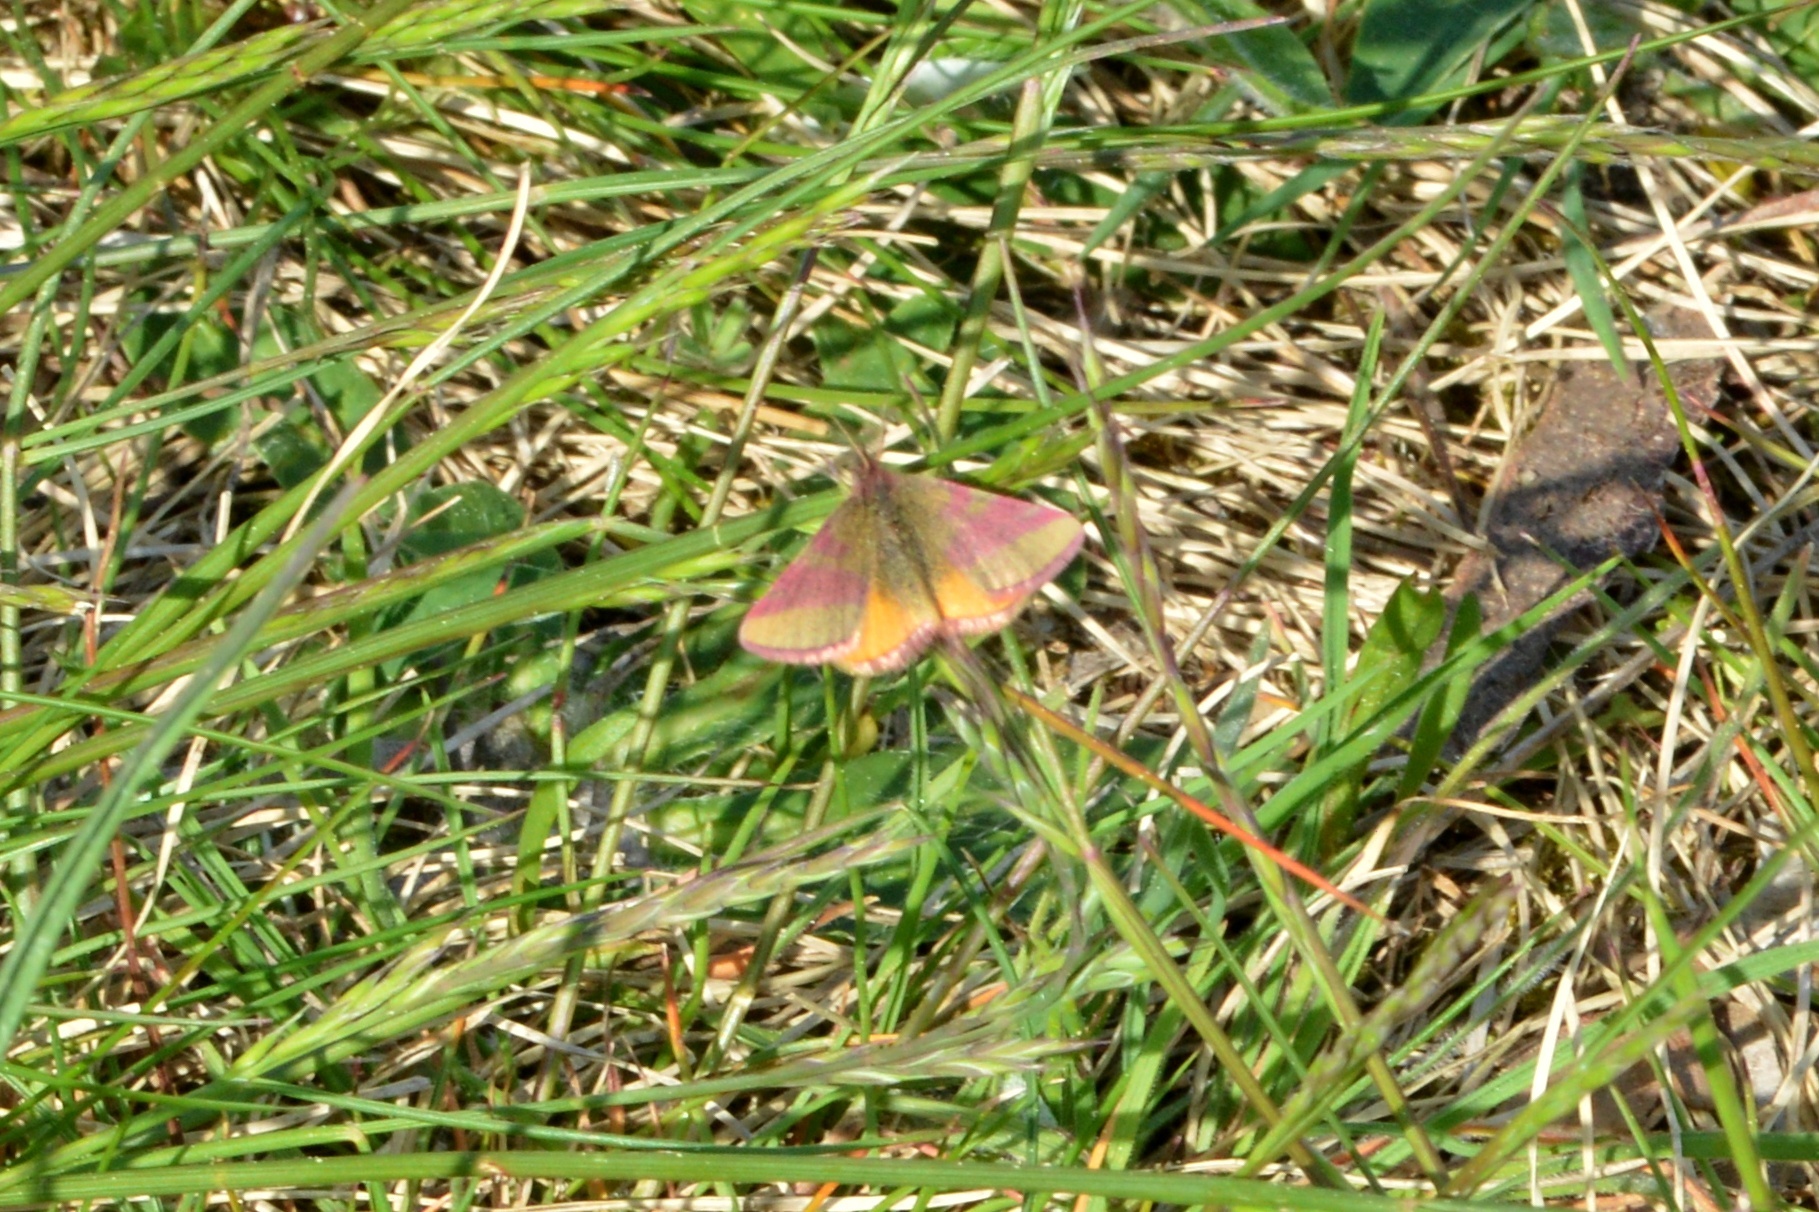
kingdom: Animalia
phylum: Arthropoda
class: Insecta
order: Lepidoptera
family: Geometridae
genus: Lythria
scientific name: Lythria cruentaria
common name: Purple-barred yellow
